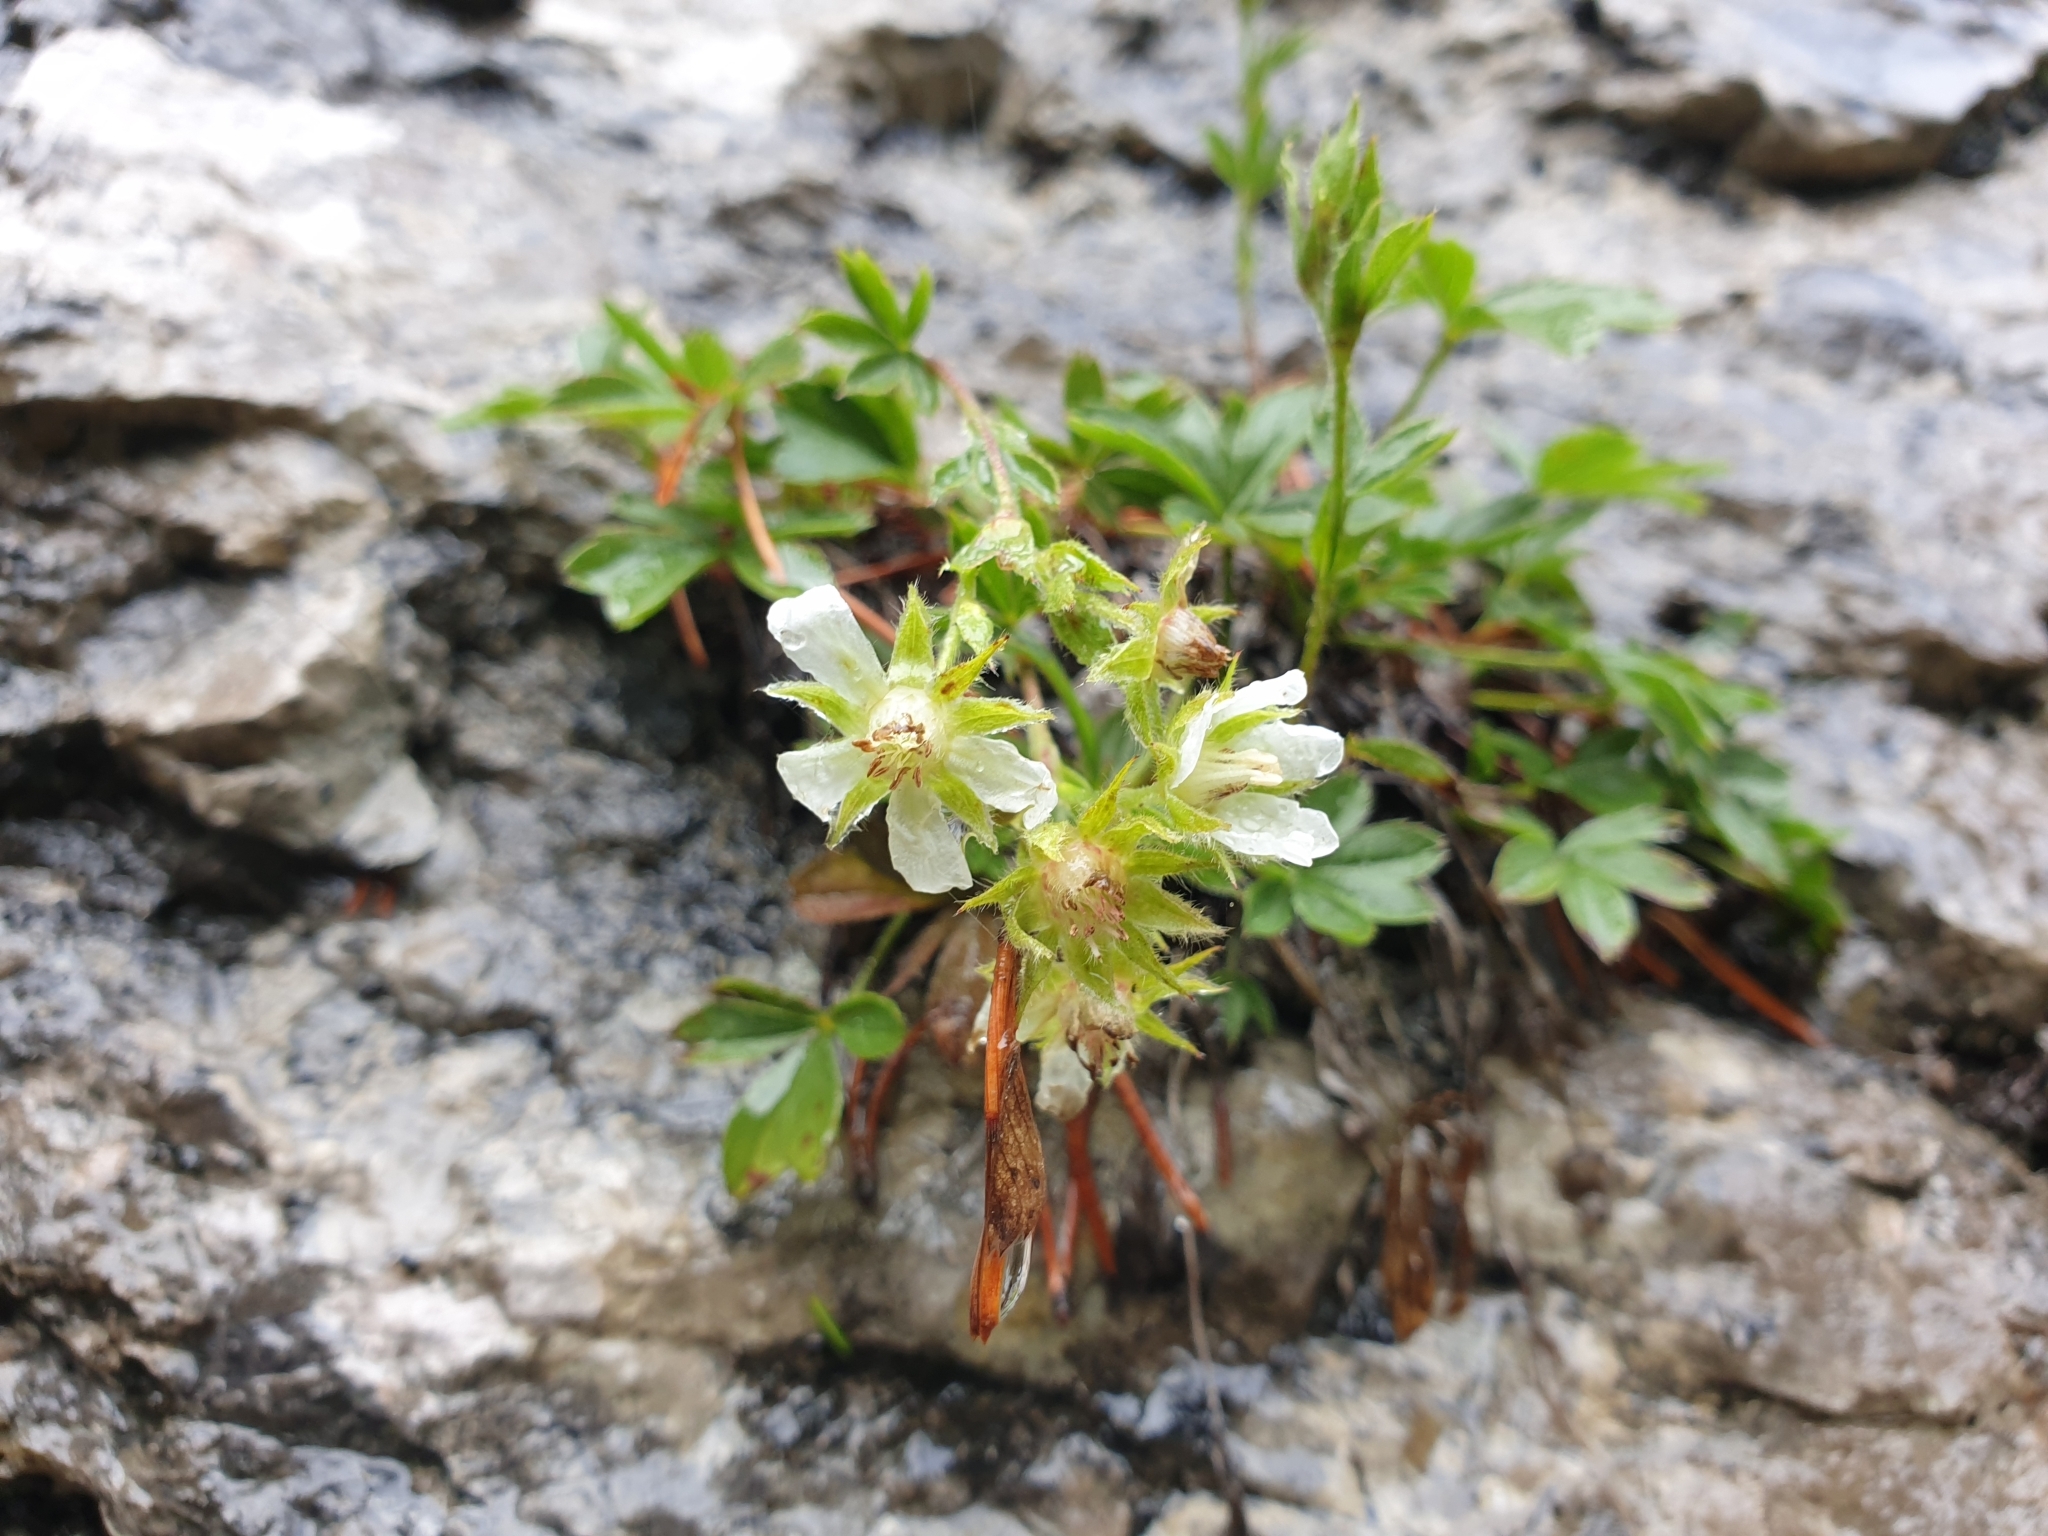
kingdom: Plantae
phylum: Tracheophyta
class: Magnoliopsida
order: Rosales
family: Rosaceae
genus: Potentilla
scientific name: Potentilla caulescens
